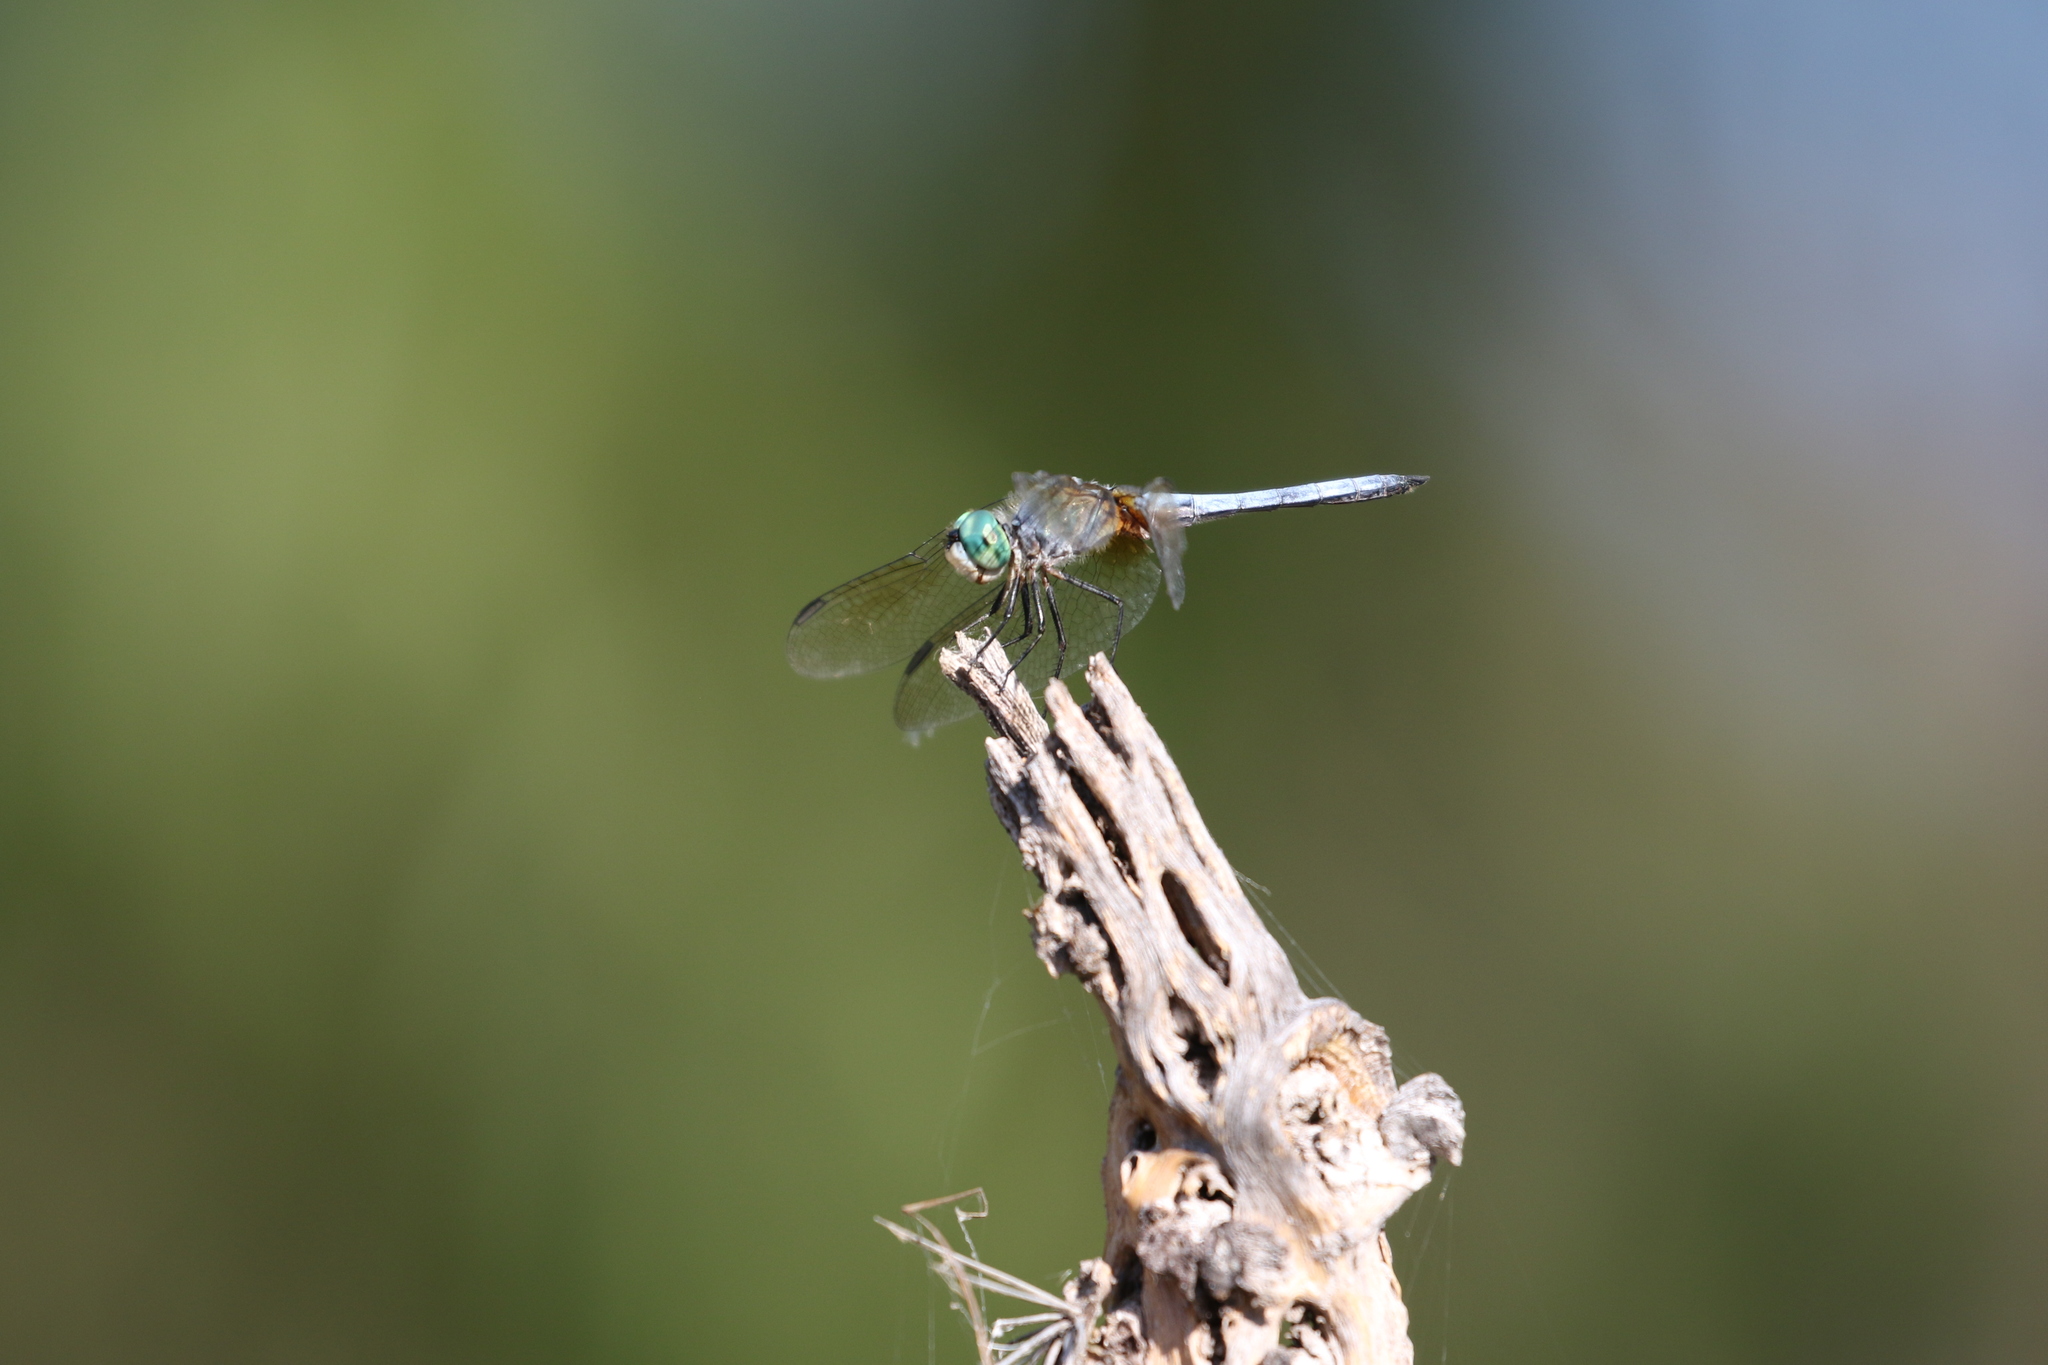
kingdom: Animalia
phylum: Arthropoda
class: Insecta
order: Odonata
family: Libellulidae
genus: Pachydiplax
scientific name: Pachydiplax longipennis
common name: Blue dasher
